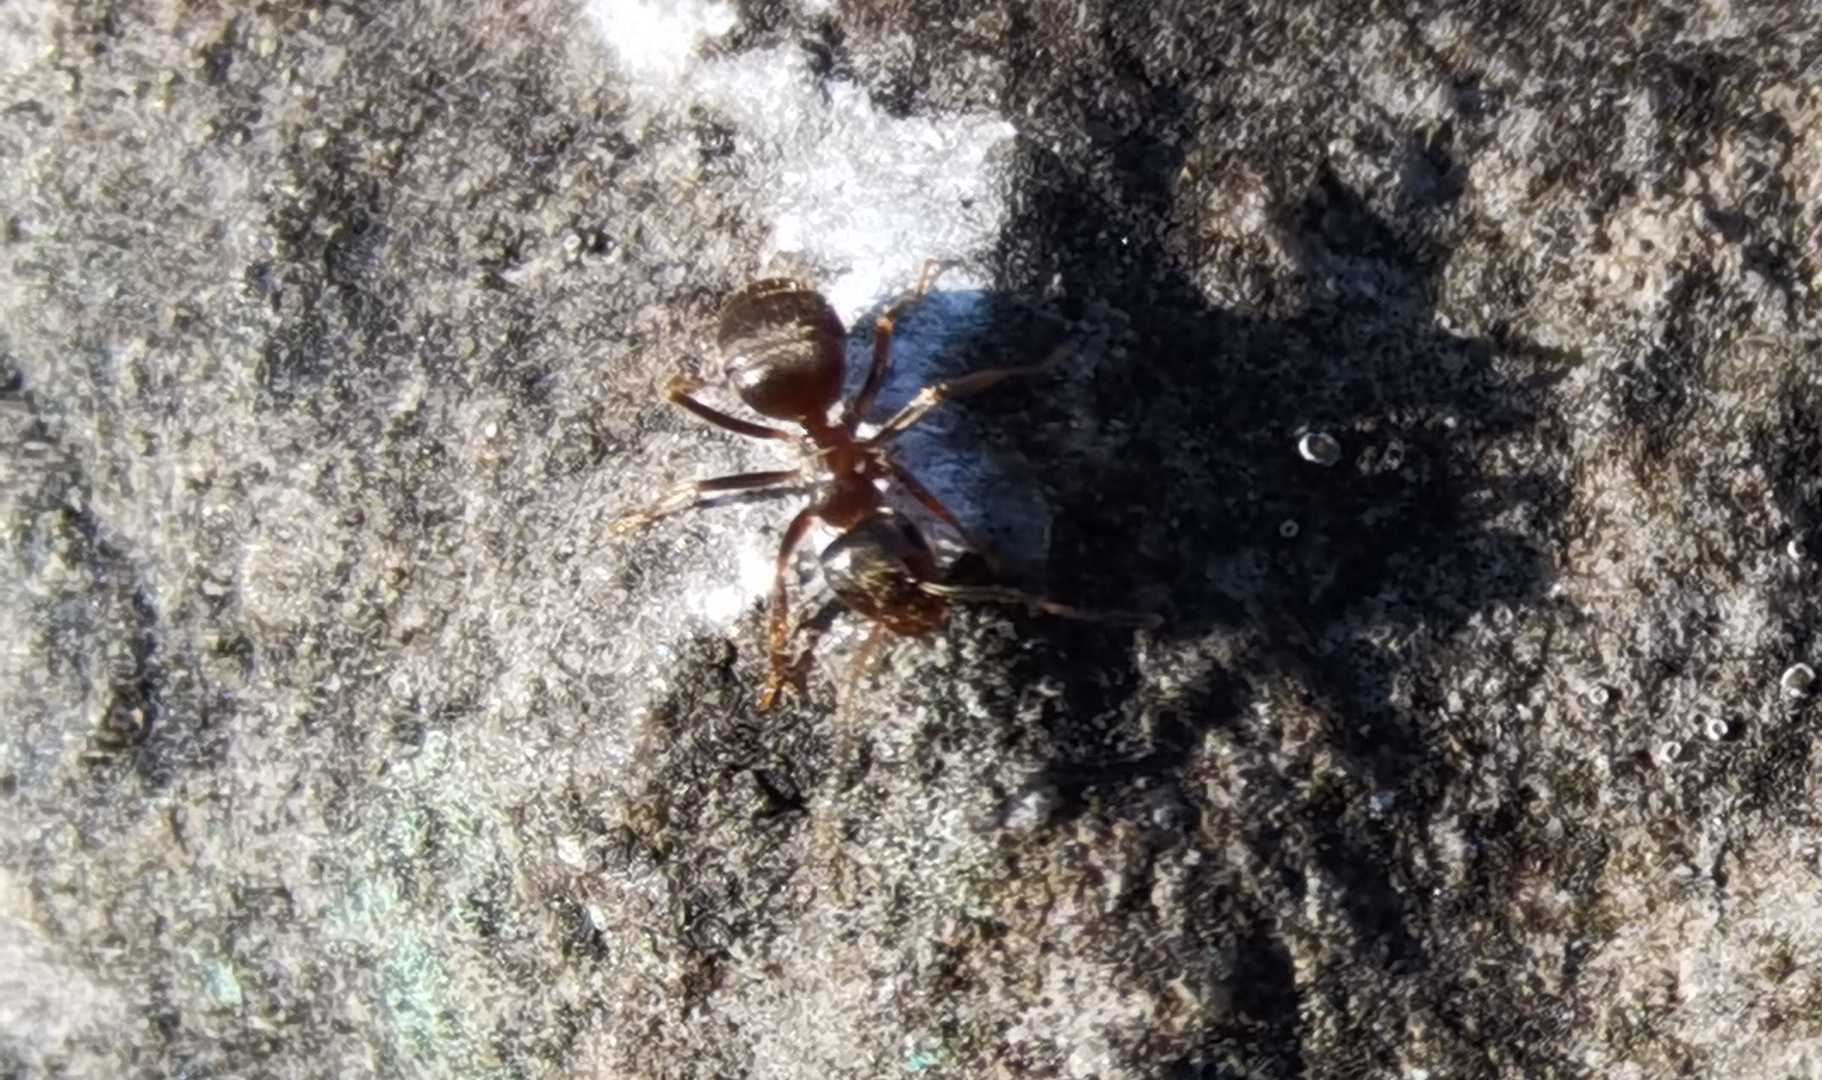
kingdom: Animalia
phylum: Arthropoda
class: Insecta
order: Hymenoptera
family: Formicidae
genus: Lasius
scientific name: Lasius
